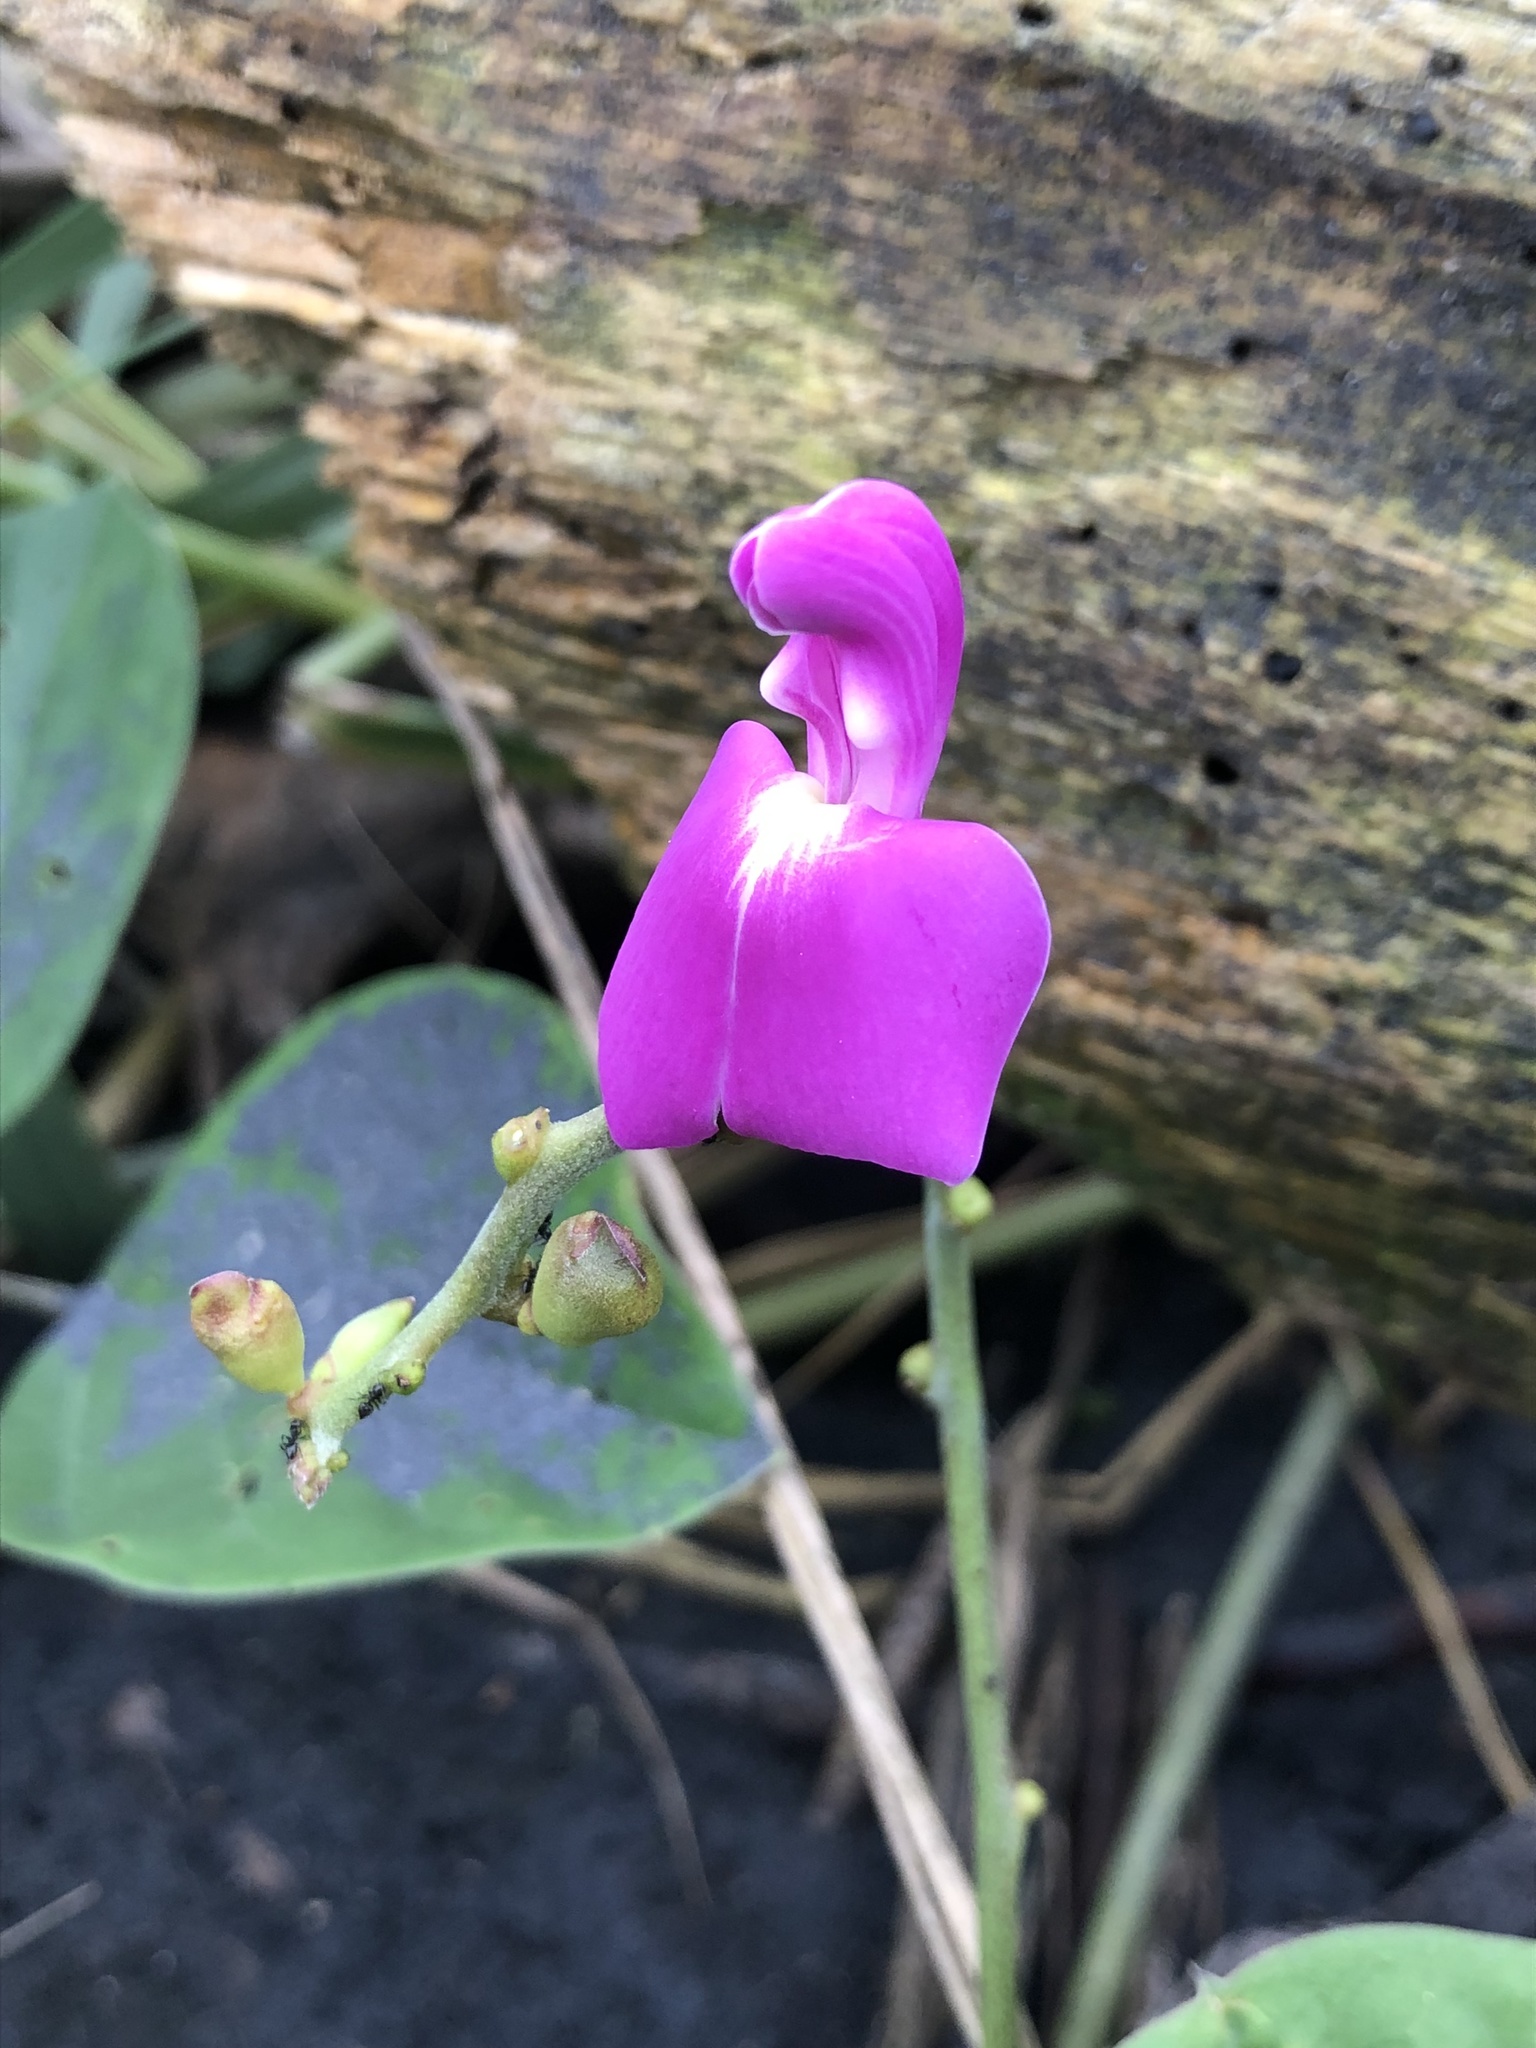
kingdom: Plantae
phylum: Tracheophyta
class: Magnoliopsida
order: Fabales
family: Fabaceae
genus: Canavalia
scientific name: Canavalia rosea
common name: Beach-bean
